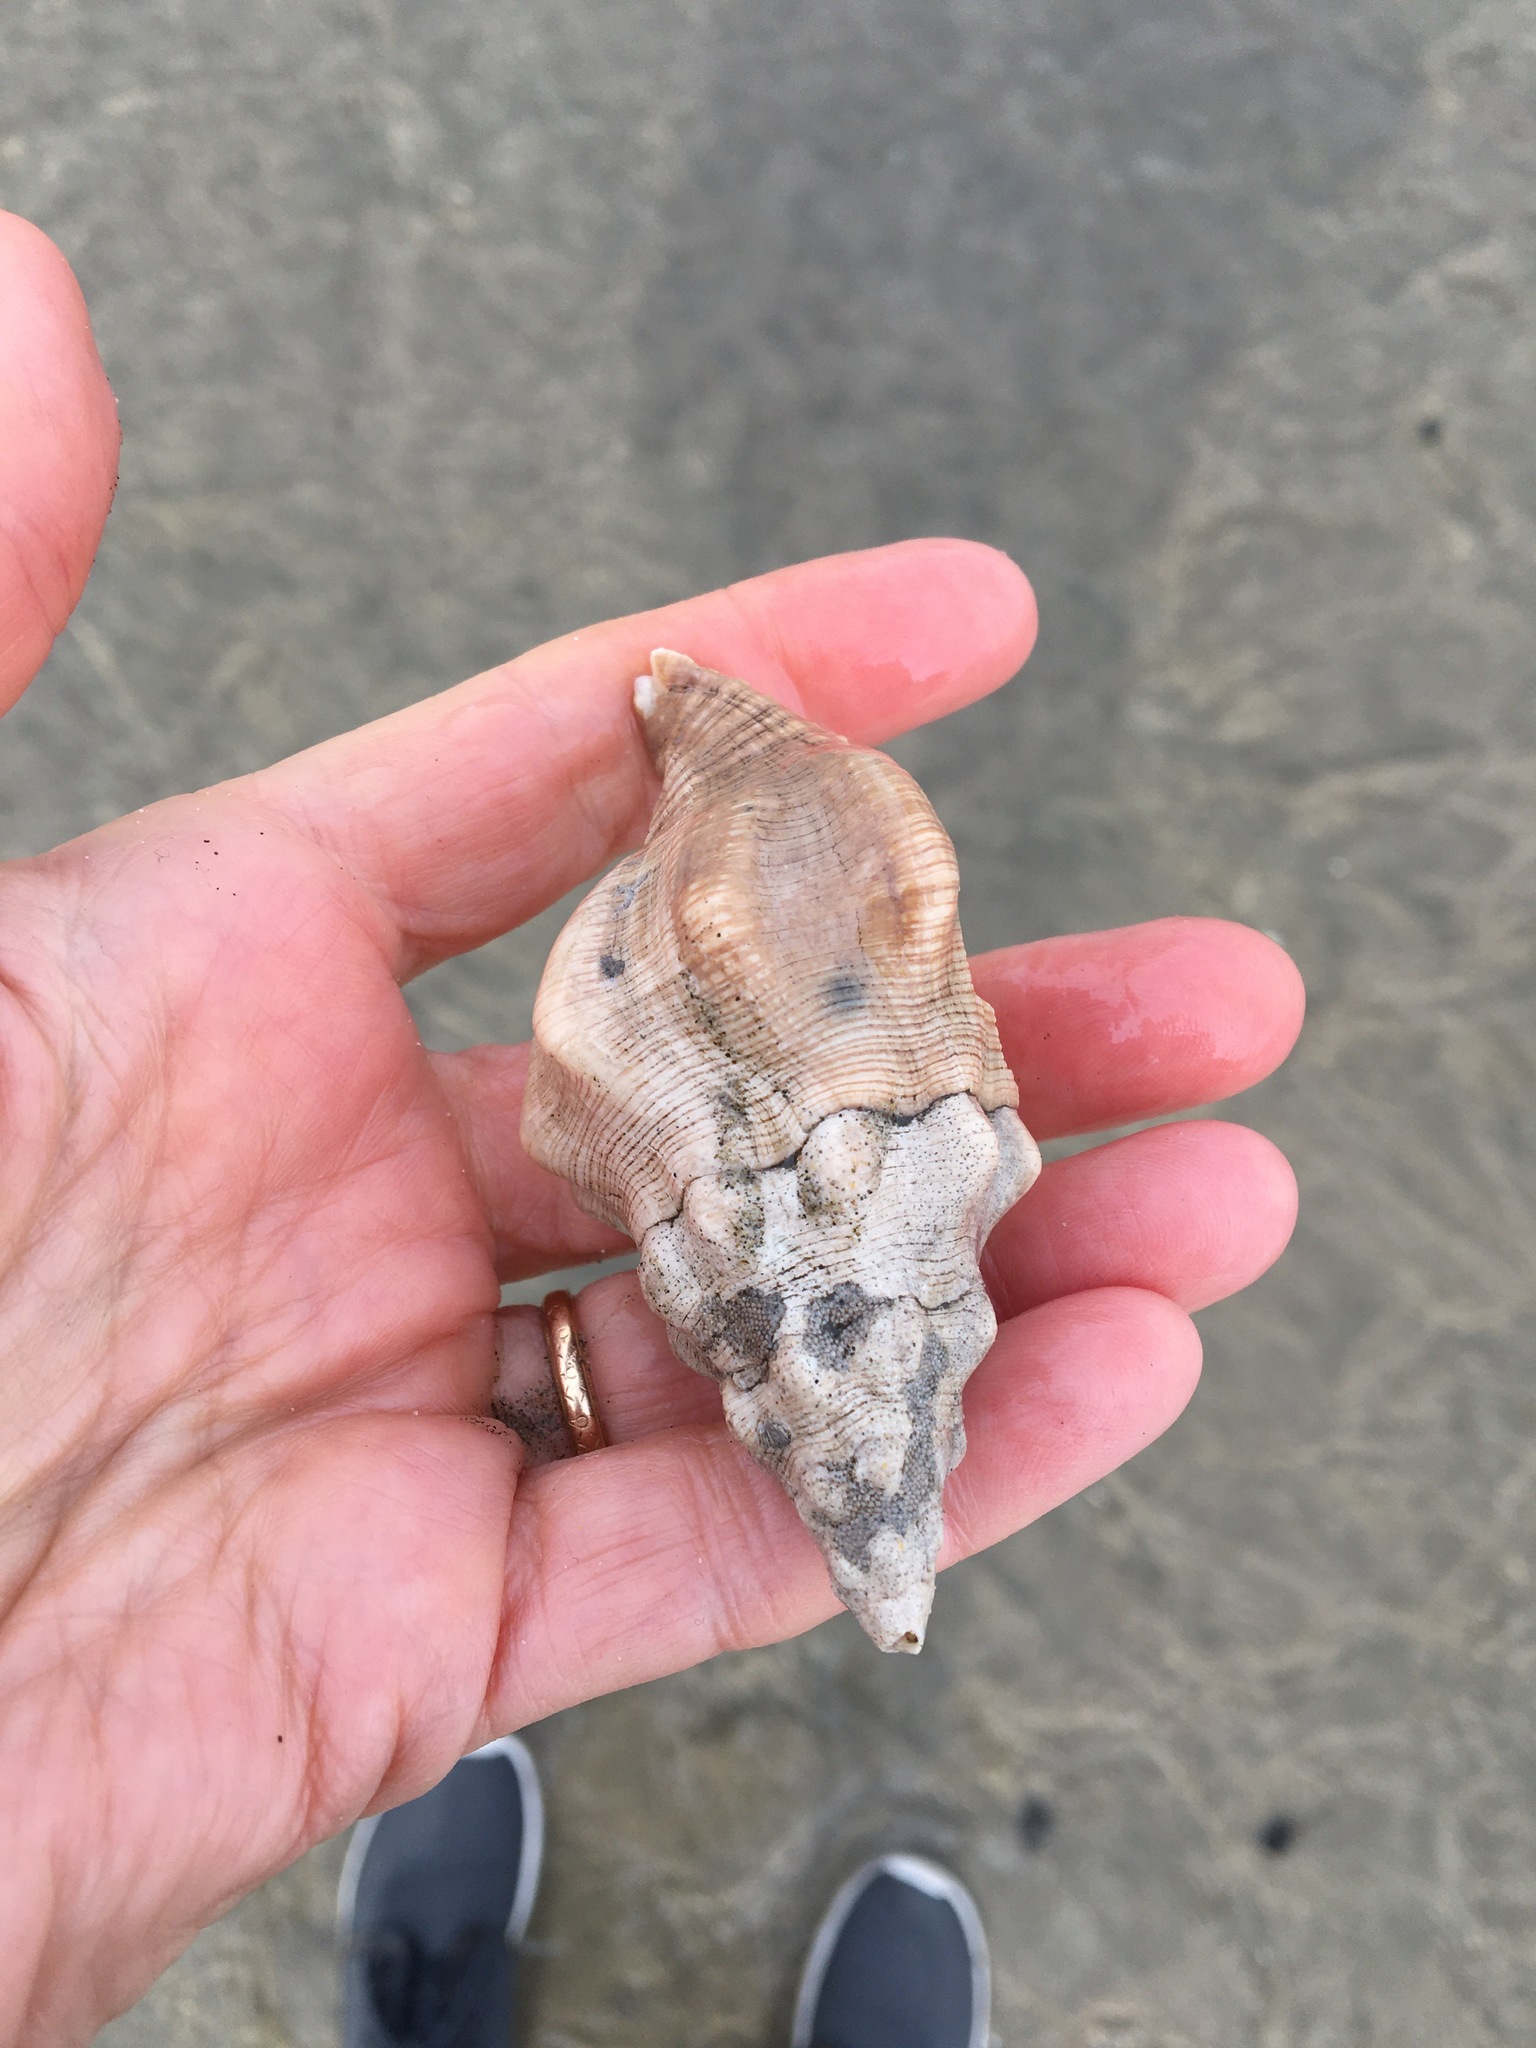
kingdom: Animalia
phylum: Mollusca
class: Gastropoda
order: Neogastropoda
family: Austrosiphonidae
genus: Kelletia
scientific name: Kelletia kelletii
